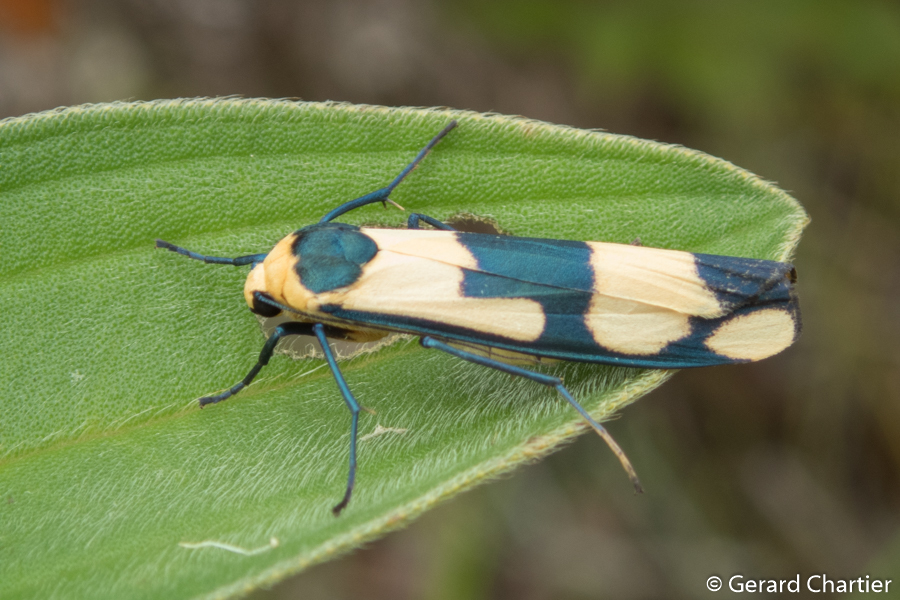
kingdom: Animalia
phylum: Arthropoda
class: Insecta
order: Lepidoptera
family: Erebidae
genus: Oeonistis
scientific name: Oeonistis altica
